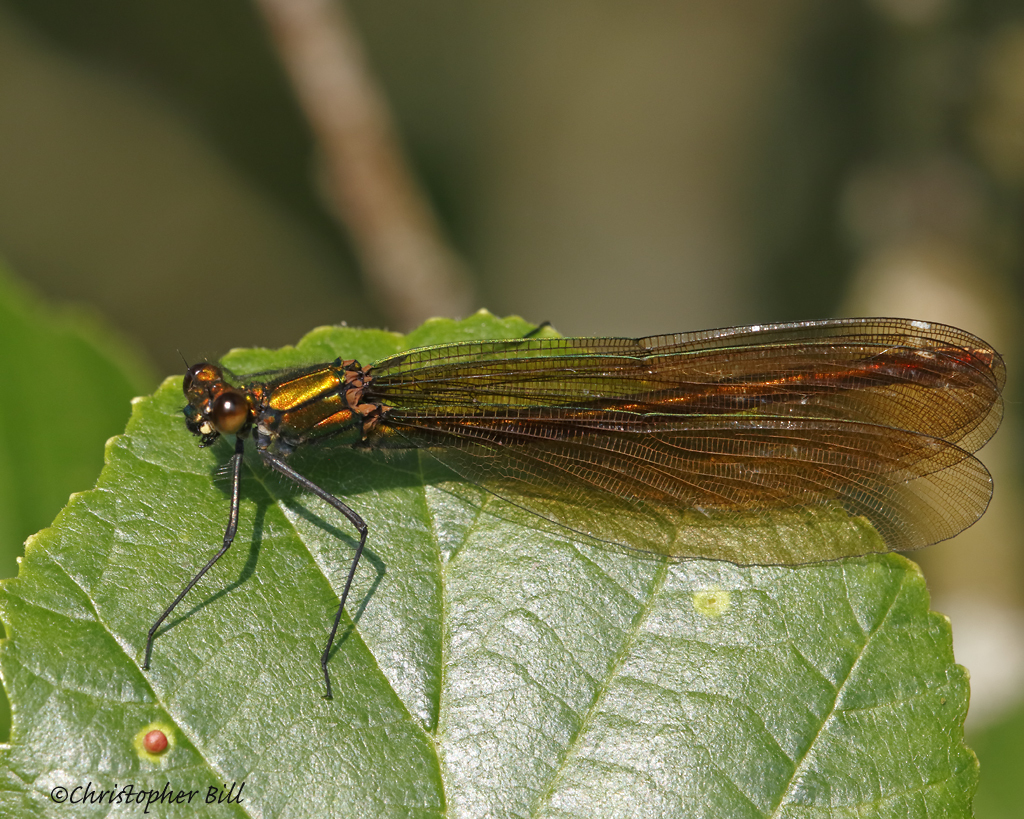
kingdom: Animalia
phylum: Arthropoda
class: Insecta
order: Odonata
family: Calopterygidae
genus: Calopteryx
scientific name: Calopteryx virgo
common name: Beautiful demoiselle
